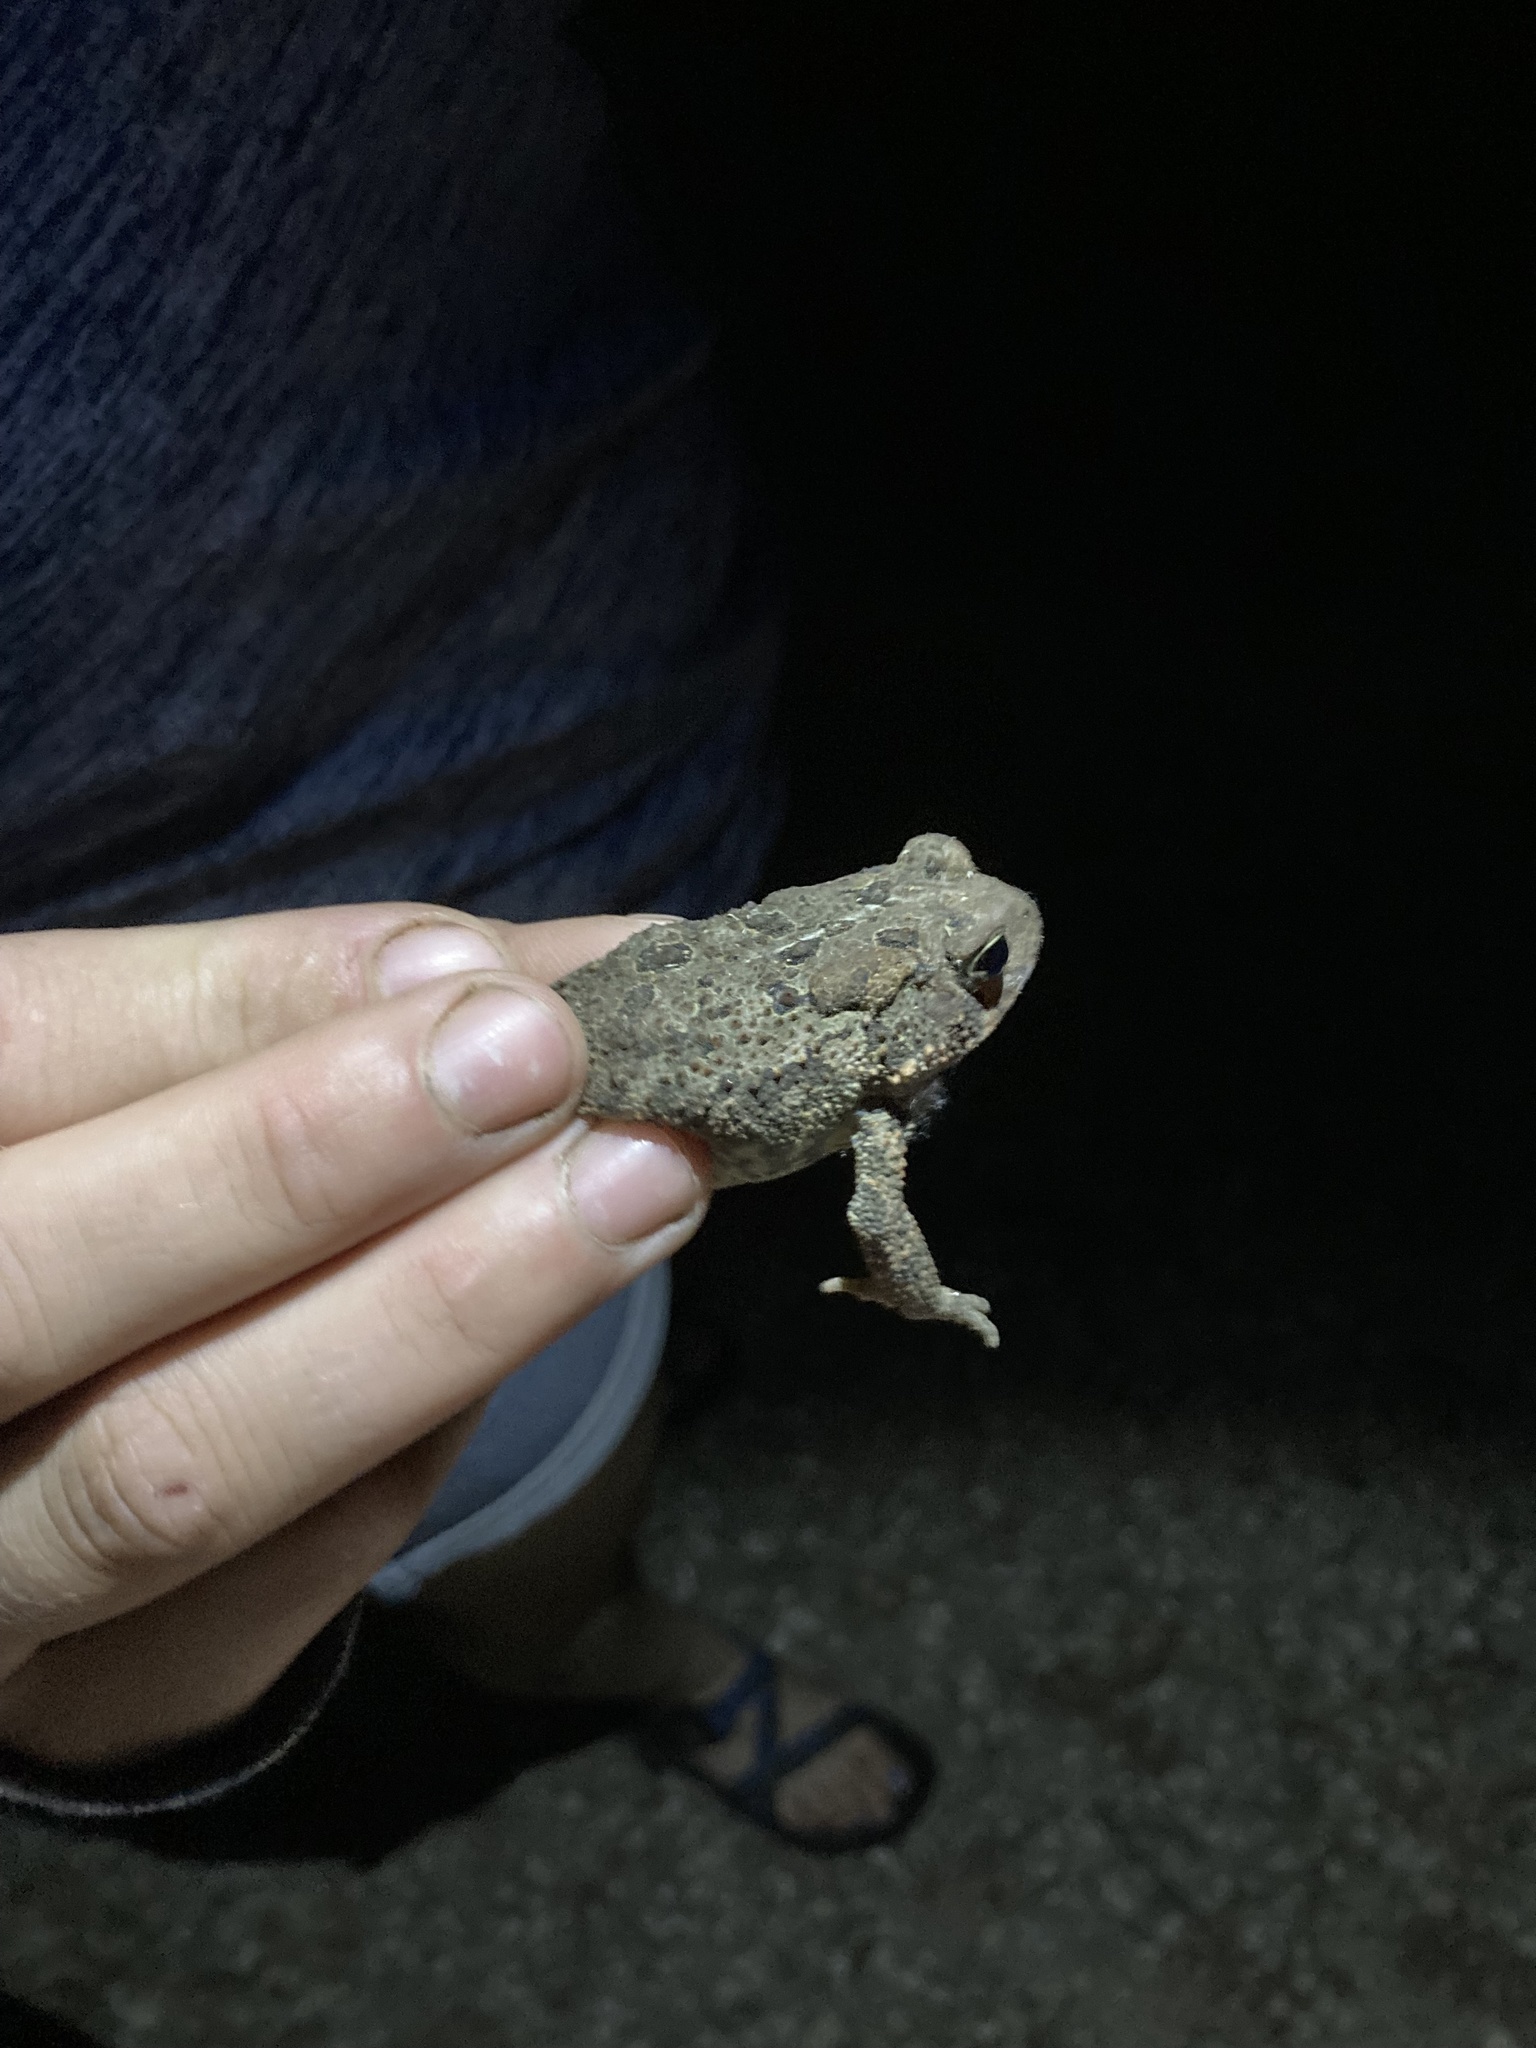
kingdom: Animalia
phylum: Chordata
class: Amphibia
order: Anura
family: Bufonidae
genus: Anaxyrus
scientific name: Anaxyrus americanus
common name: American toad
